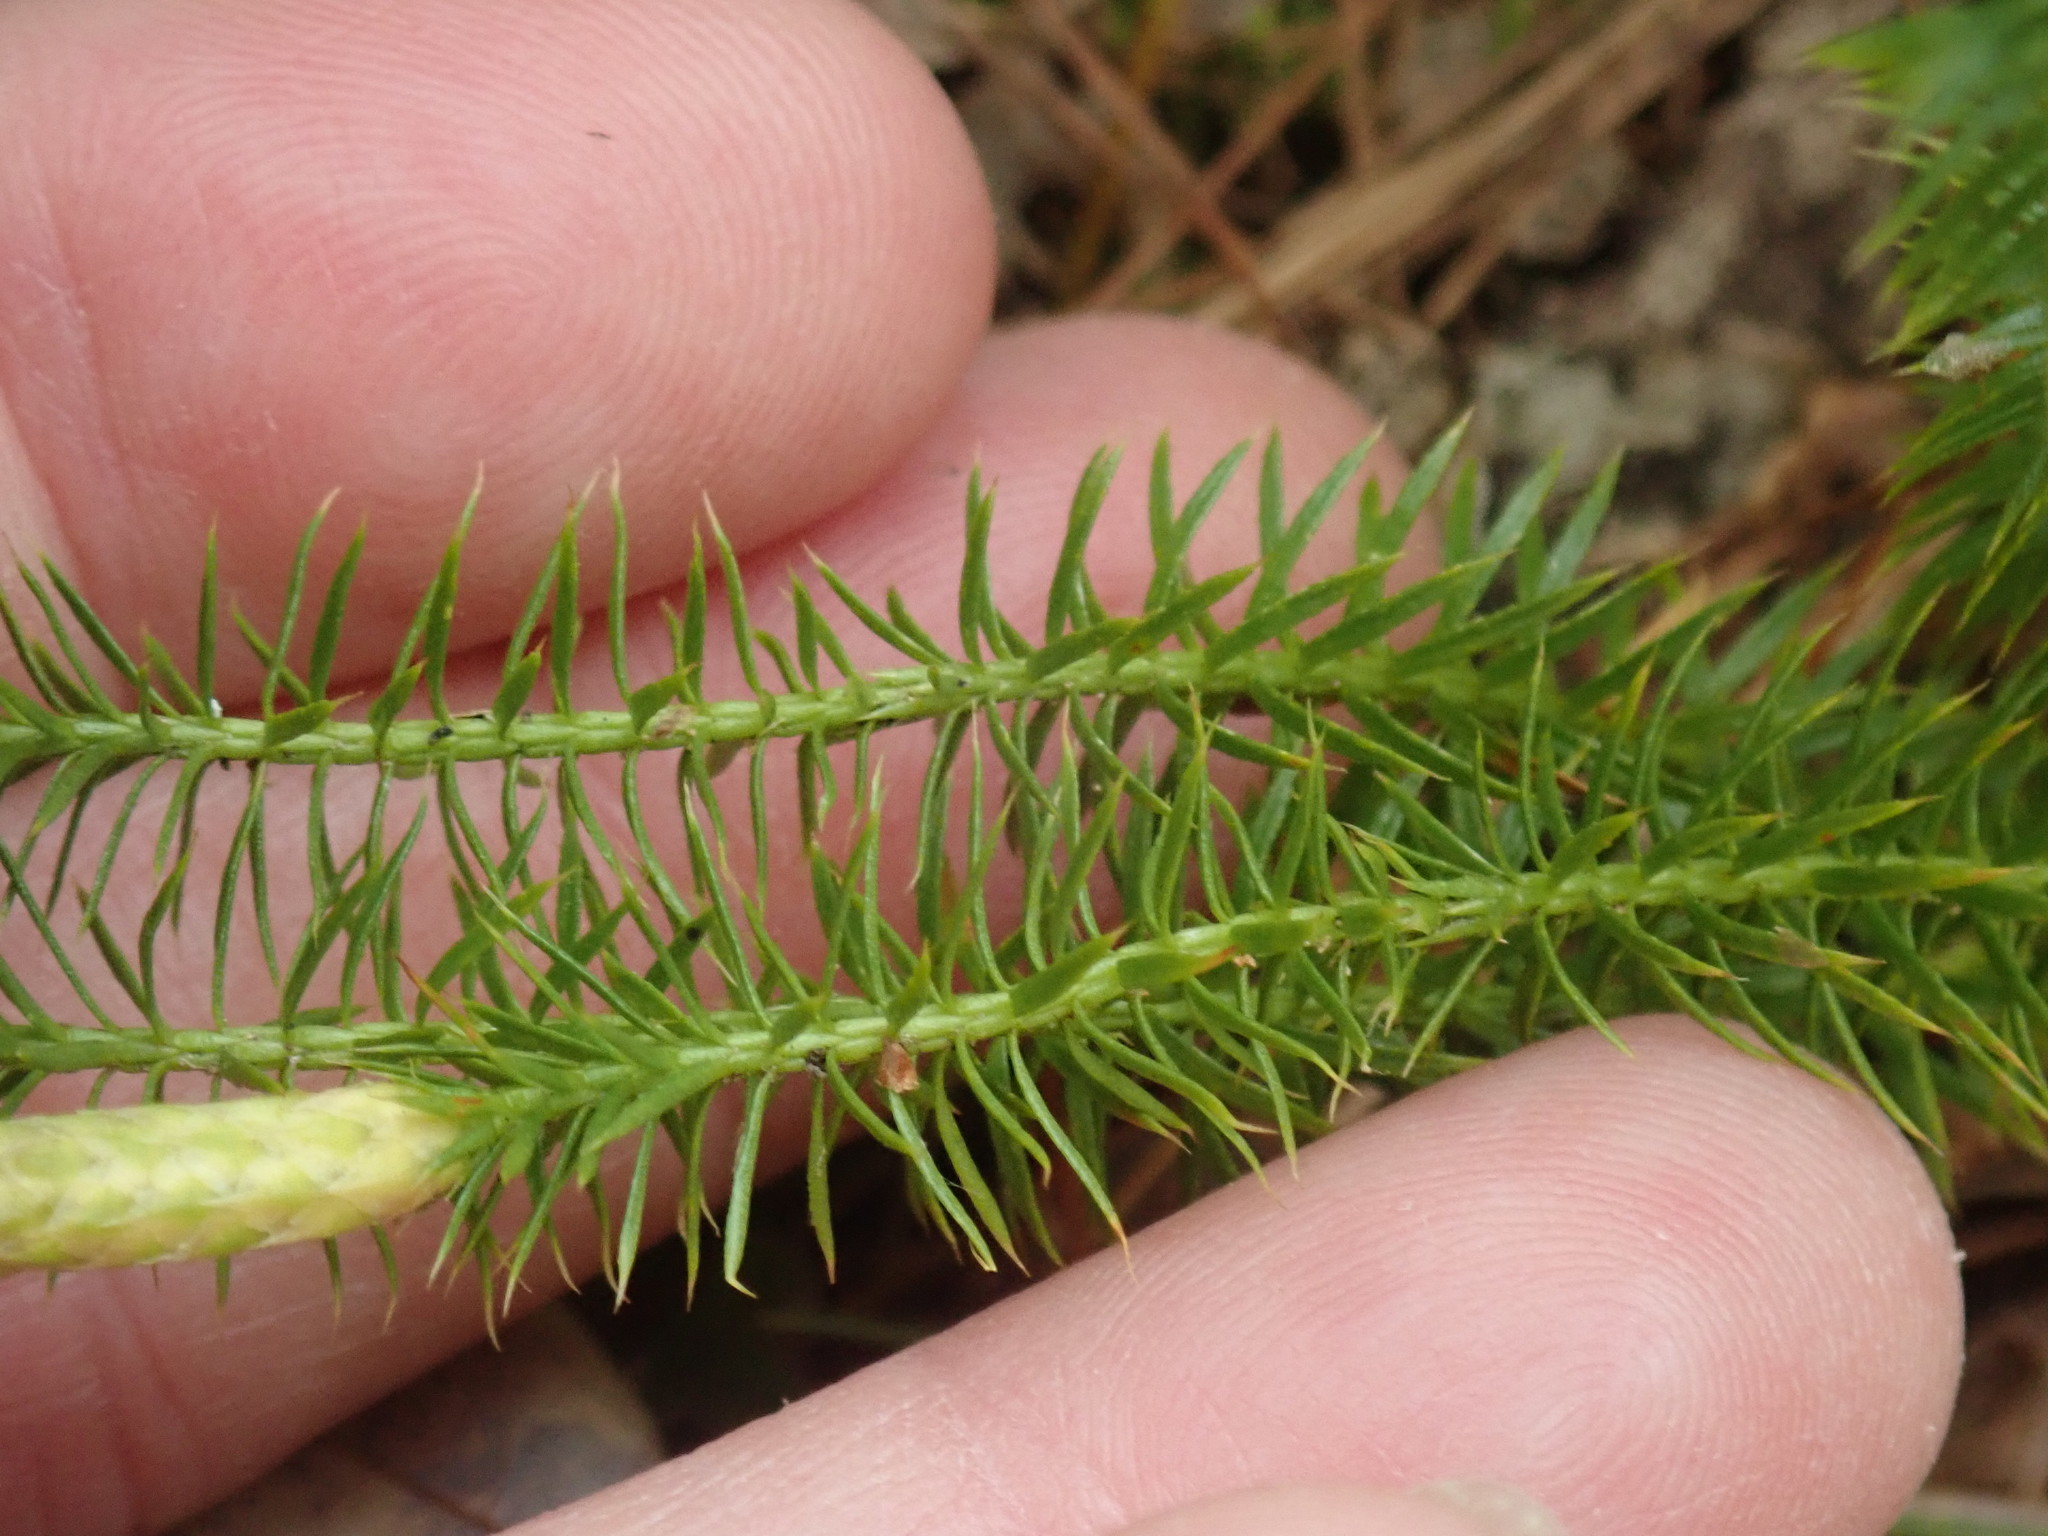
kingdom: Plantae
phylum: Tracheophyta
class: Lycopodiopsida
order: Lycopodiales
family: Lycopodiaceae
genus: Spinulum
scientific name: Spinulum annotinum
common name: Interrupted club-moss
